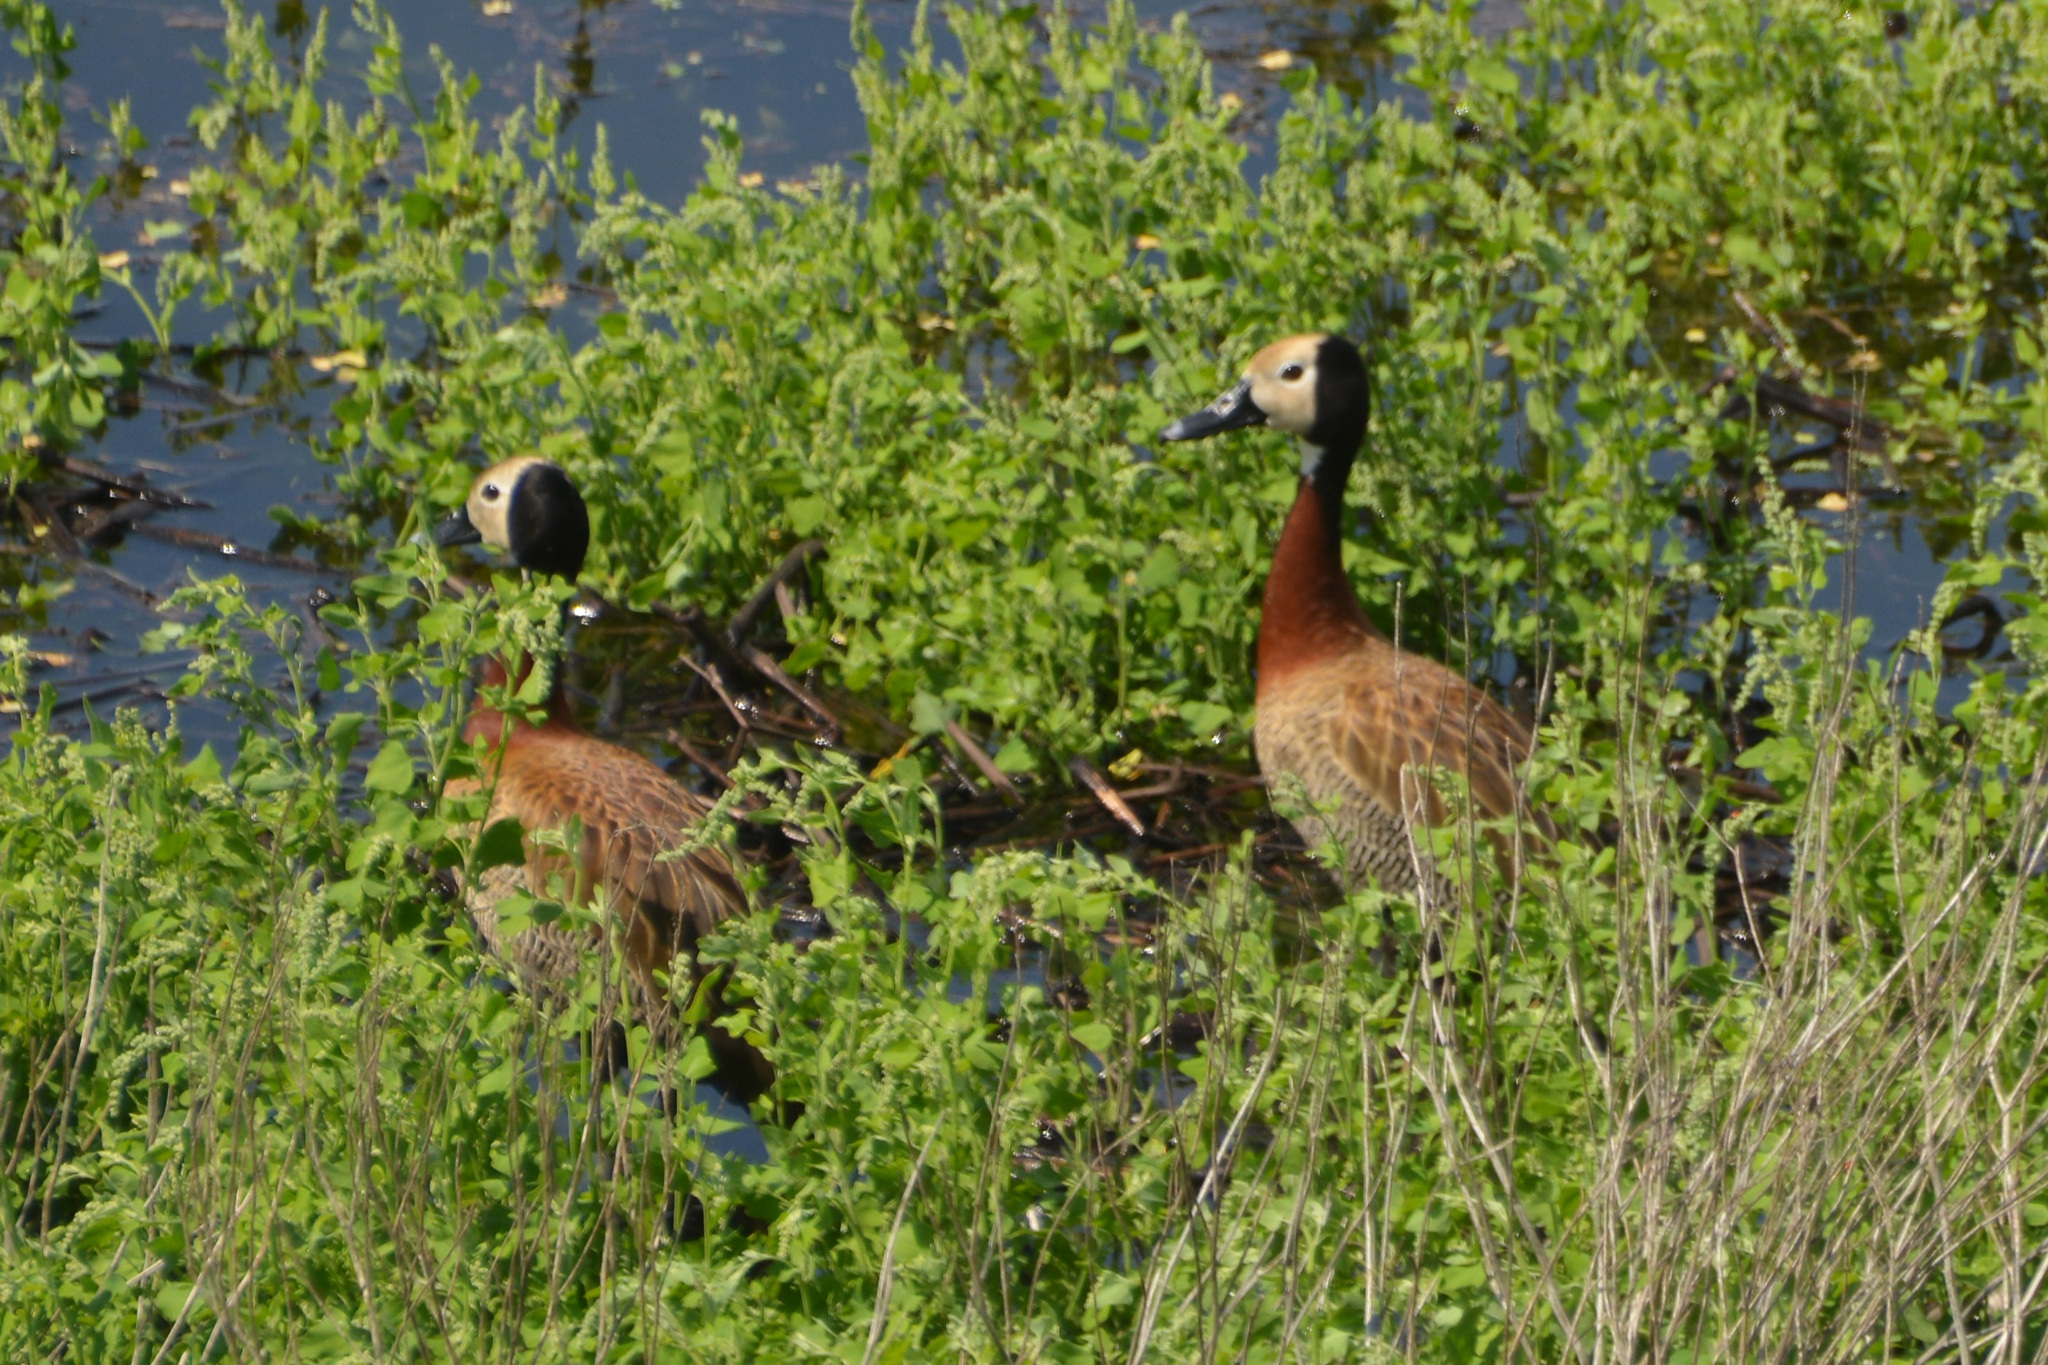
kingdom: Animalia
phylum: Chordata
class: Aves
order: Anseriformes
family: Anatidae
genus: Dendrocygna
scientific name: Dendrocygna viduata
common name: White-faced whistling duck
